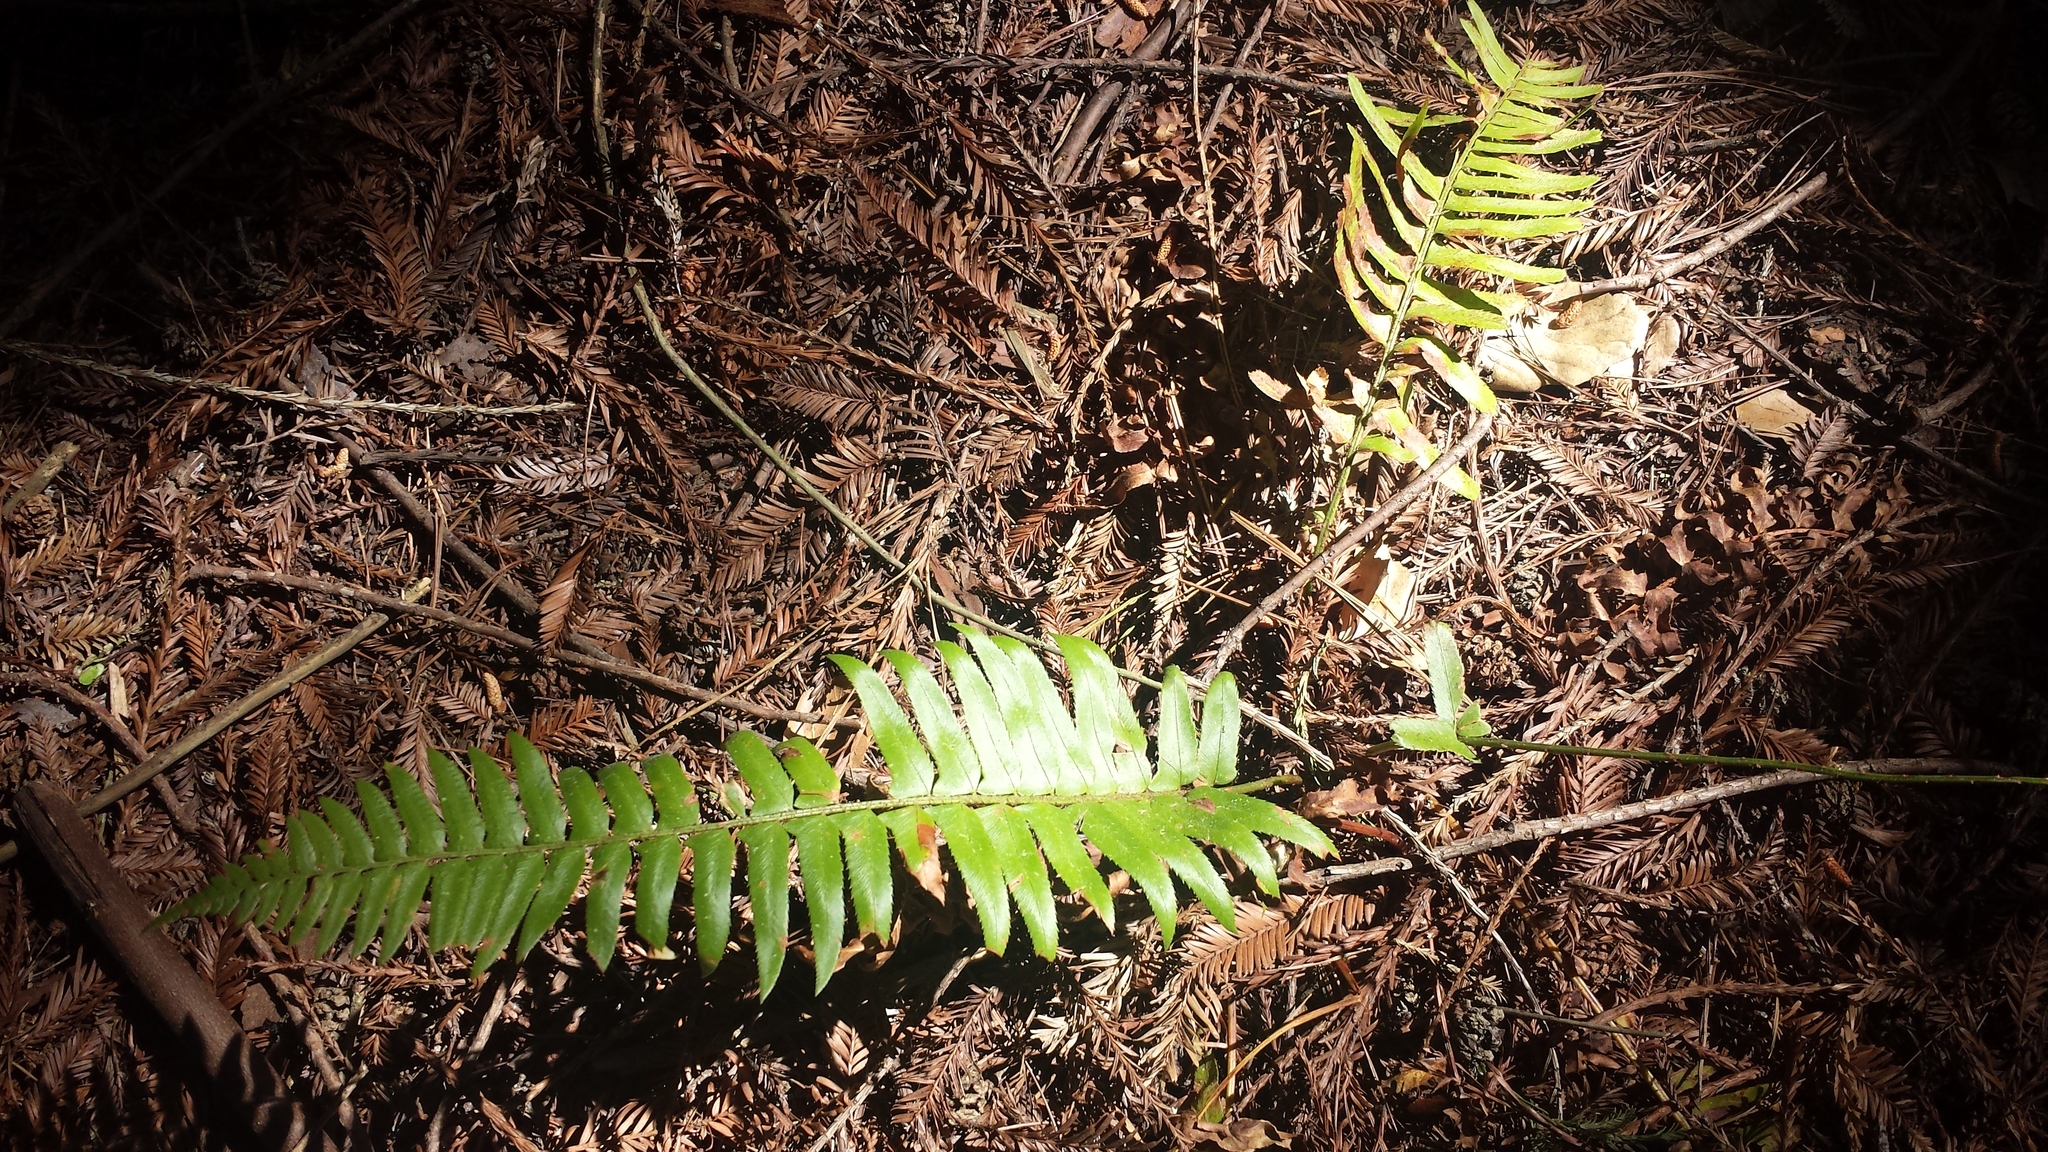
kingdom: Plantae
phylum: Tracheophyta
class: Polypodiopsida
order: Polypodiales
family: Dryopteridaceae
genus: Polystichum
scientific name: Polystichum munitum
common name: Western sword-fern
